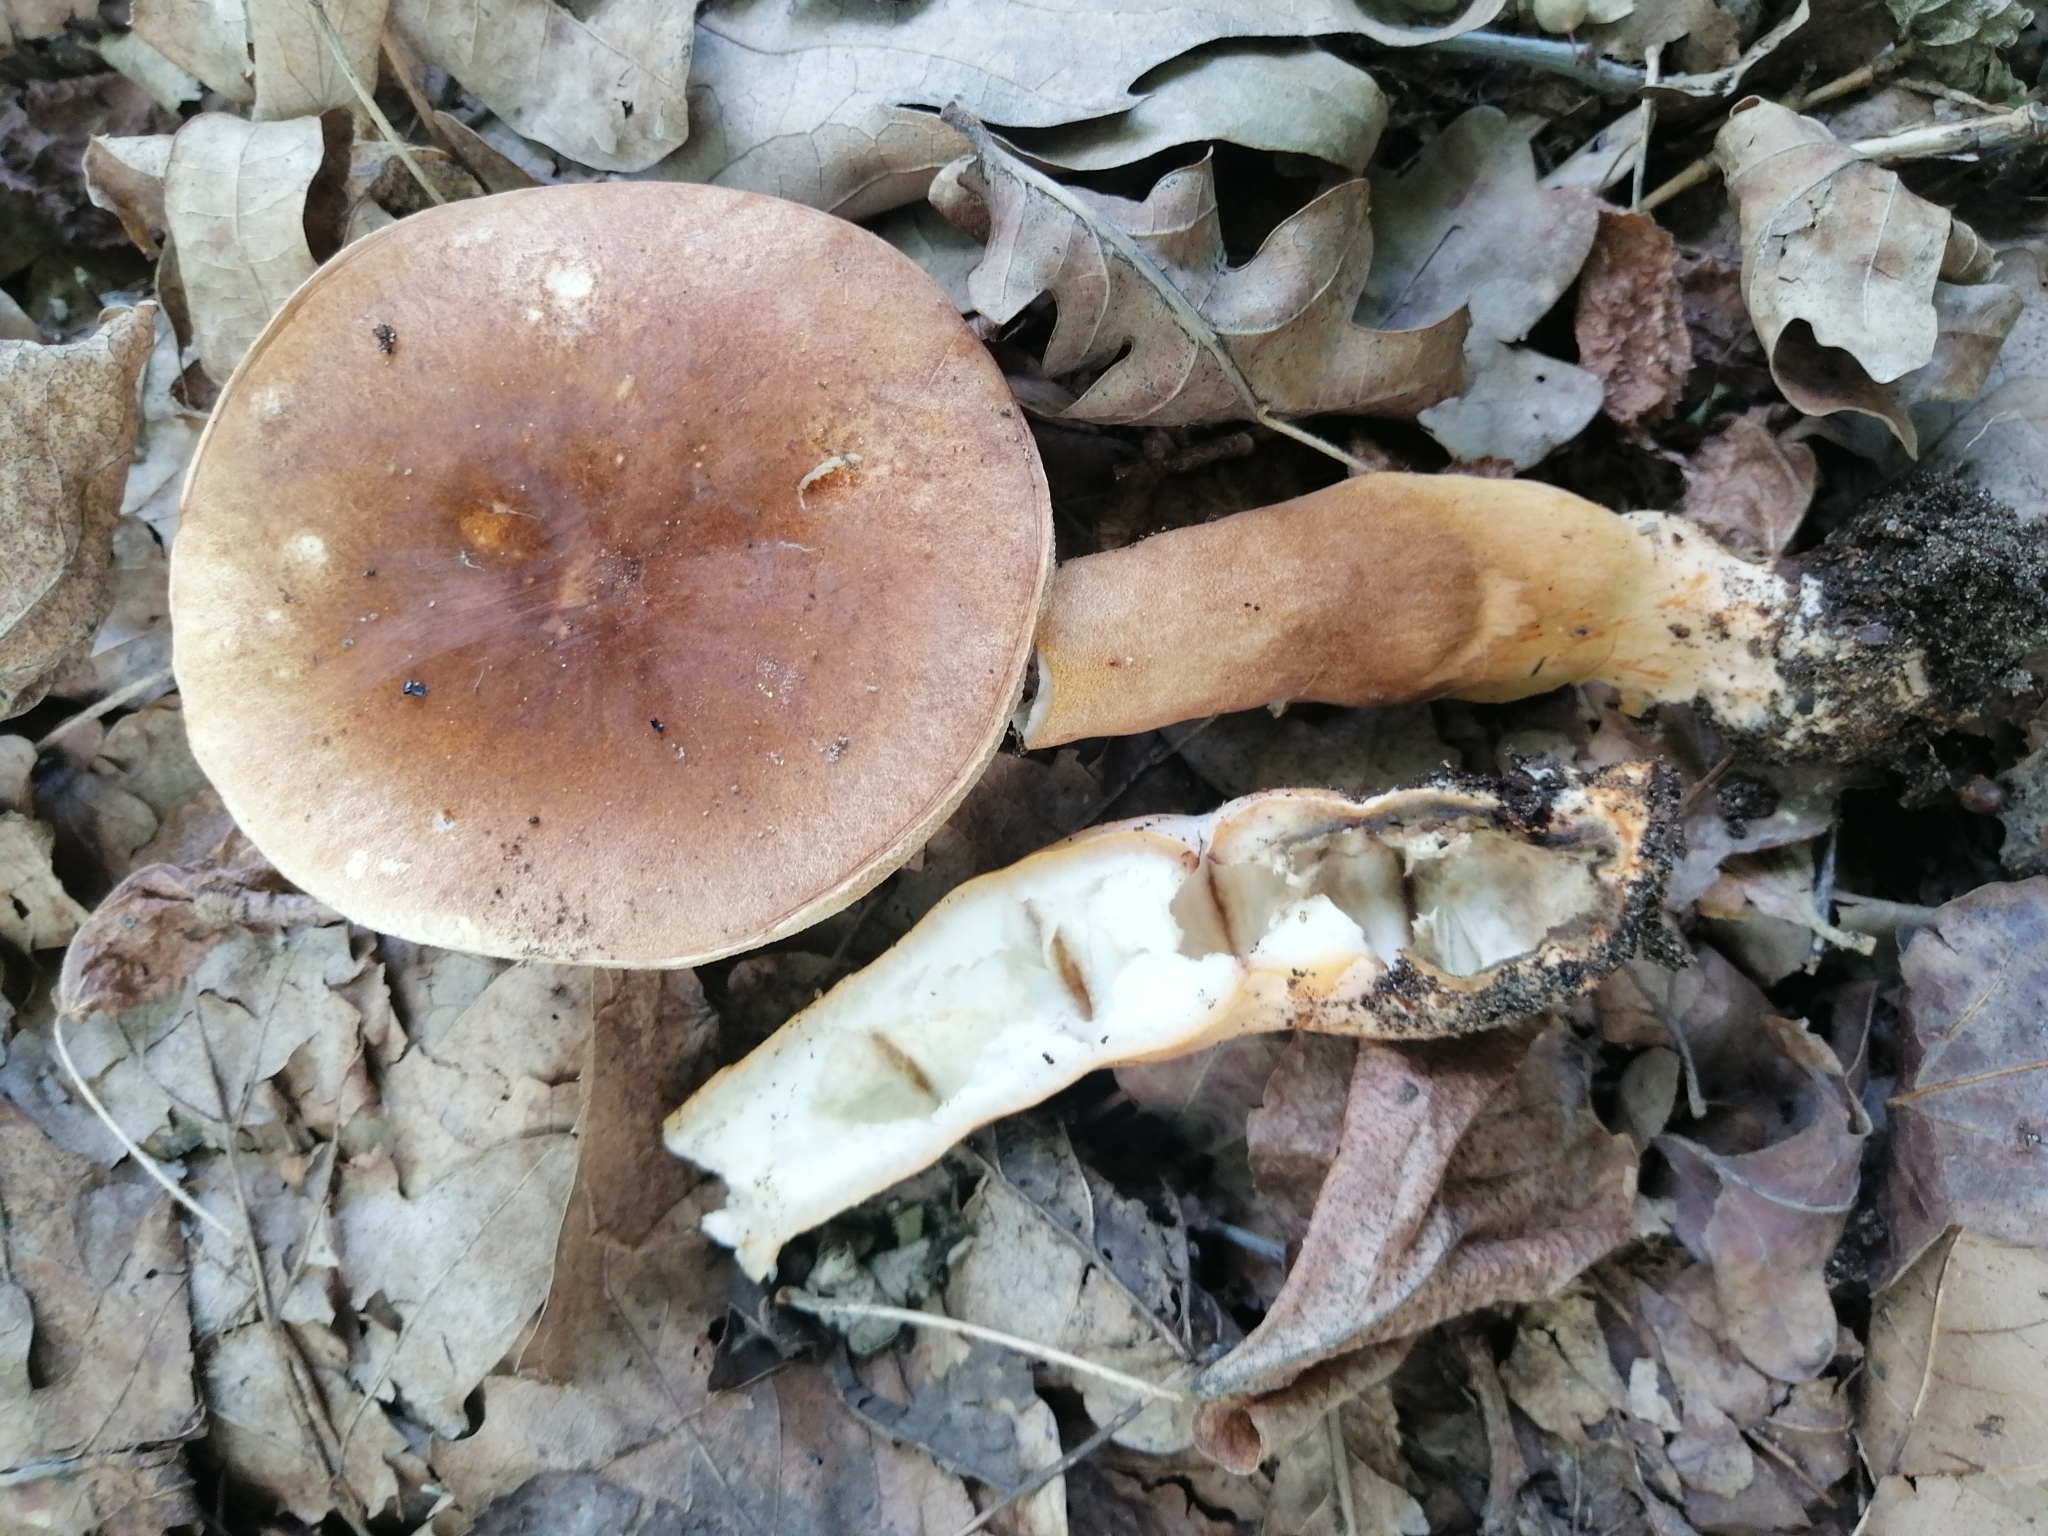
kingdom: Fungi
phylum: Basidiomycota
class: Agaricomycetes
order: Boletales
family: Gyroporaceae
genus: Gyroporus
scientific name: Gyroporus castaneus
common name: Chestnut bolete
